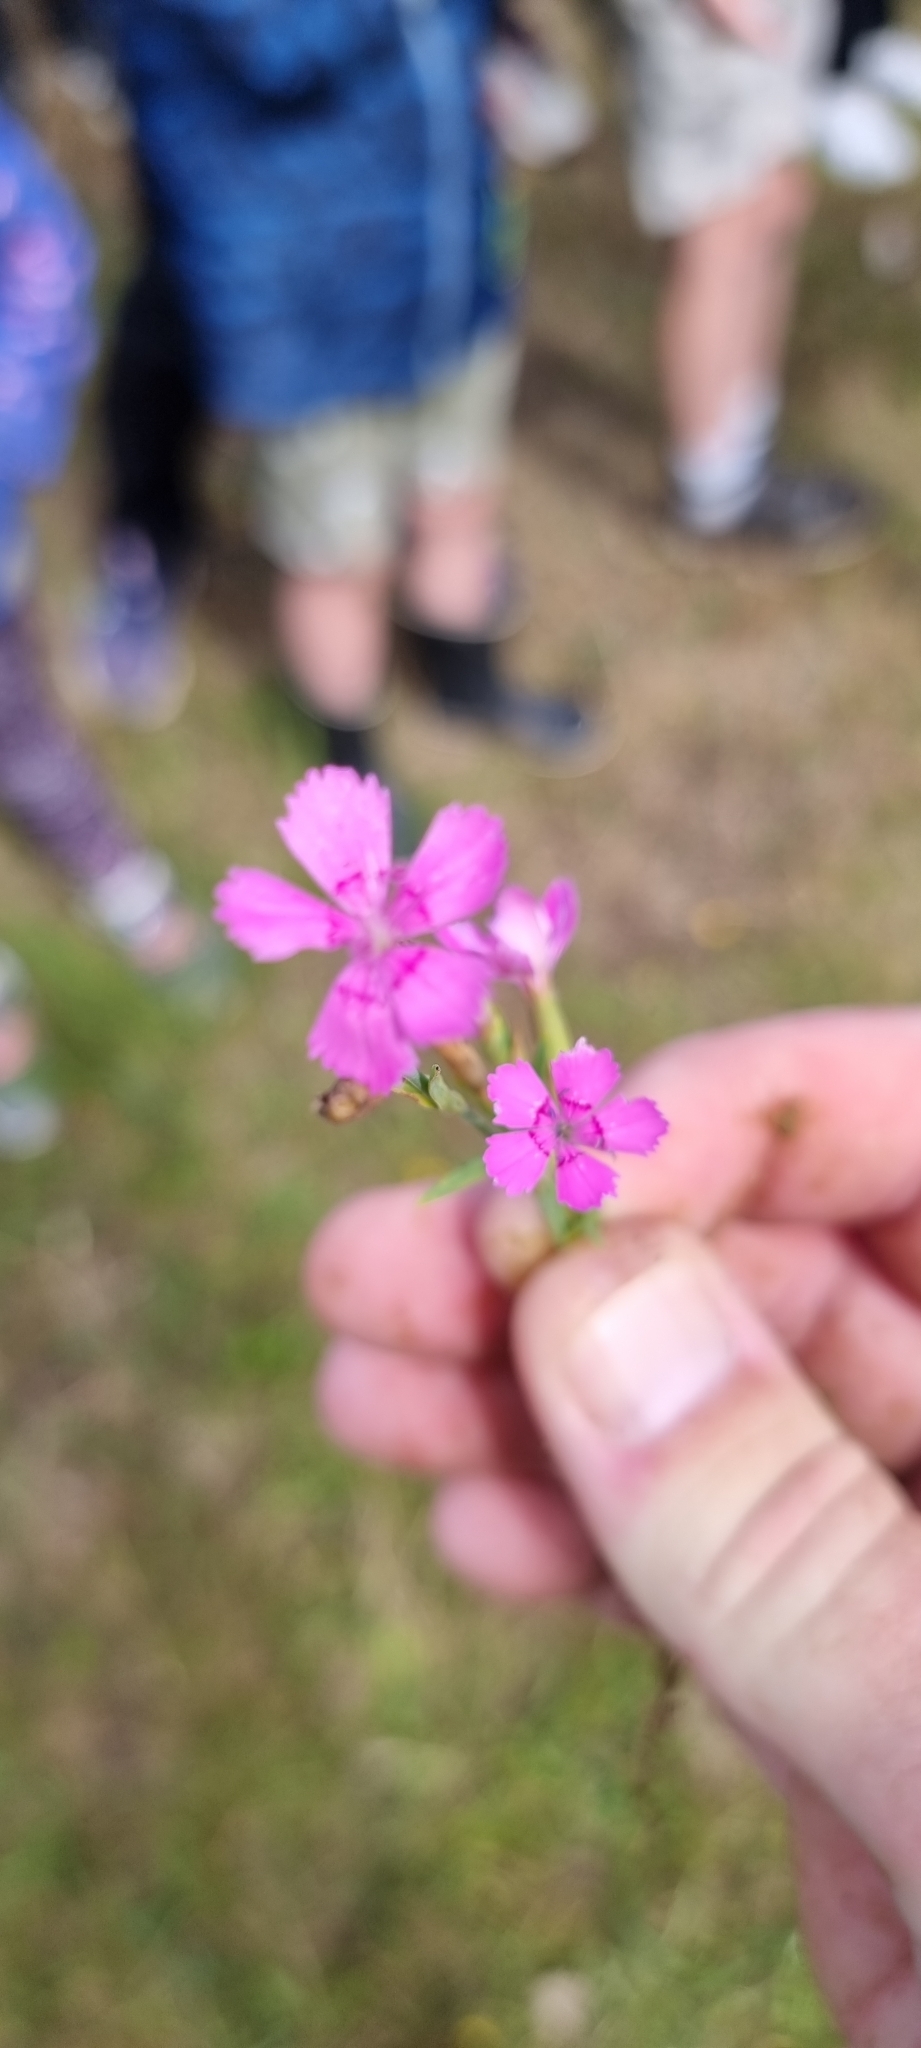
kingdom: Plantae
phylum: Tracheophyta
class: Magnoliopsida
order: Caryophyllales
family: Caryophyllaceae
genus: Dianthus
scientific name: Dianthus deltoides
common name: Maiden pink
